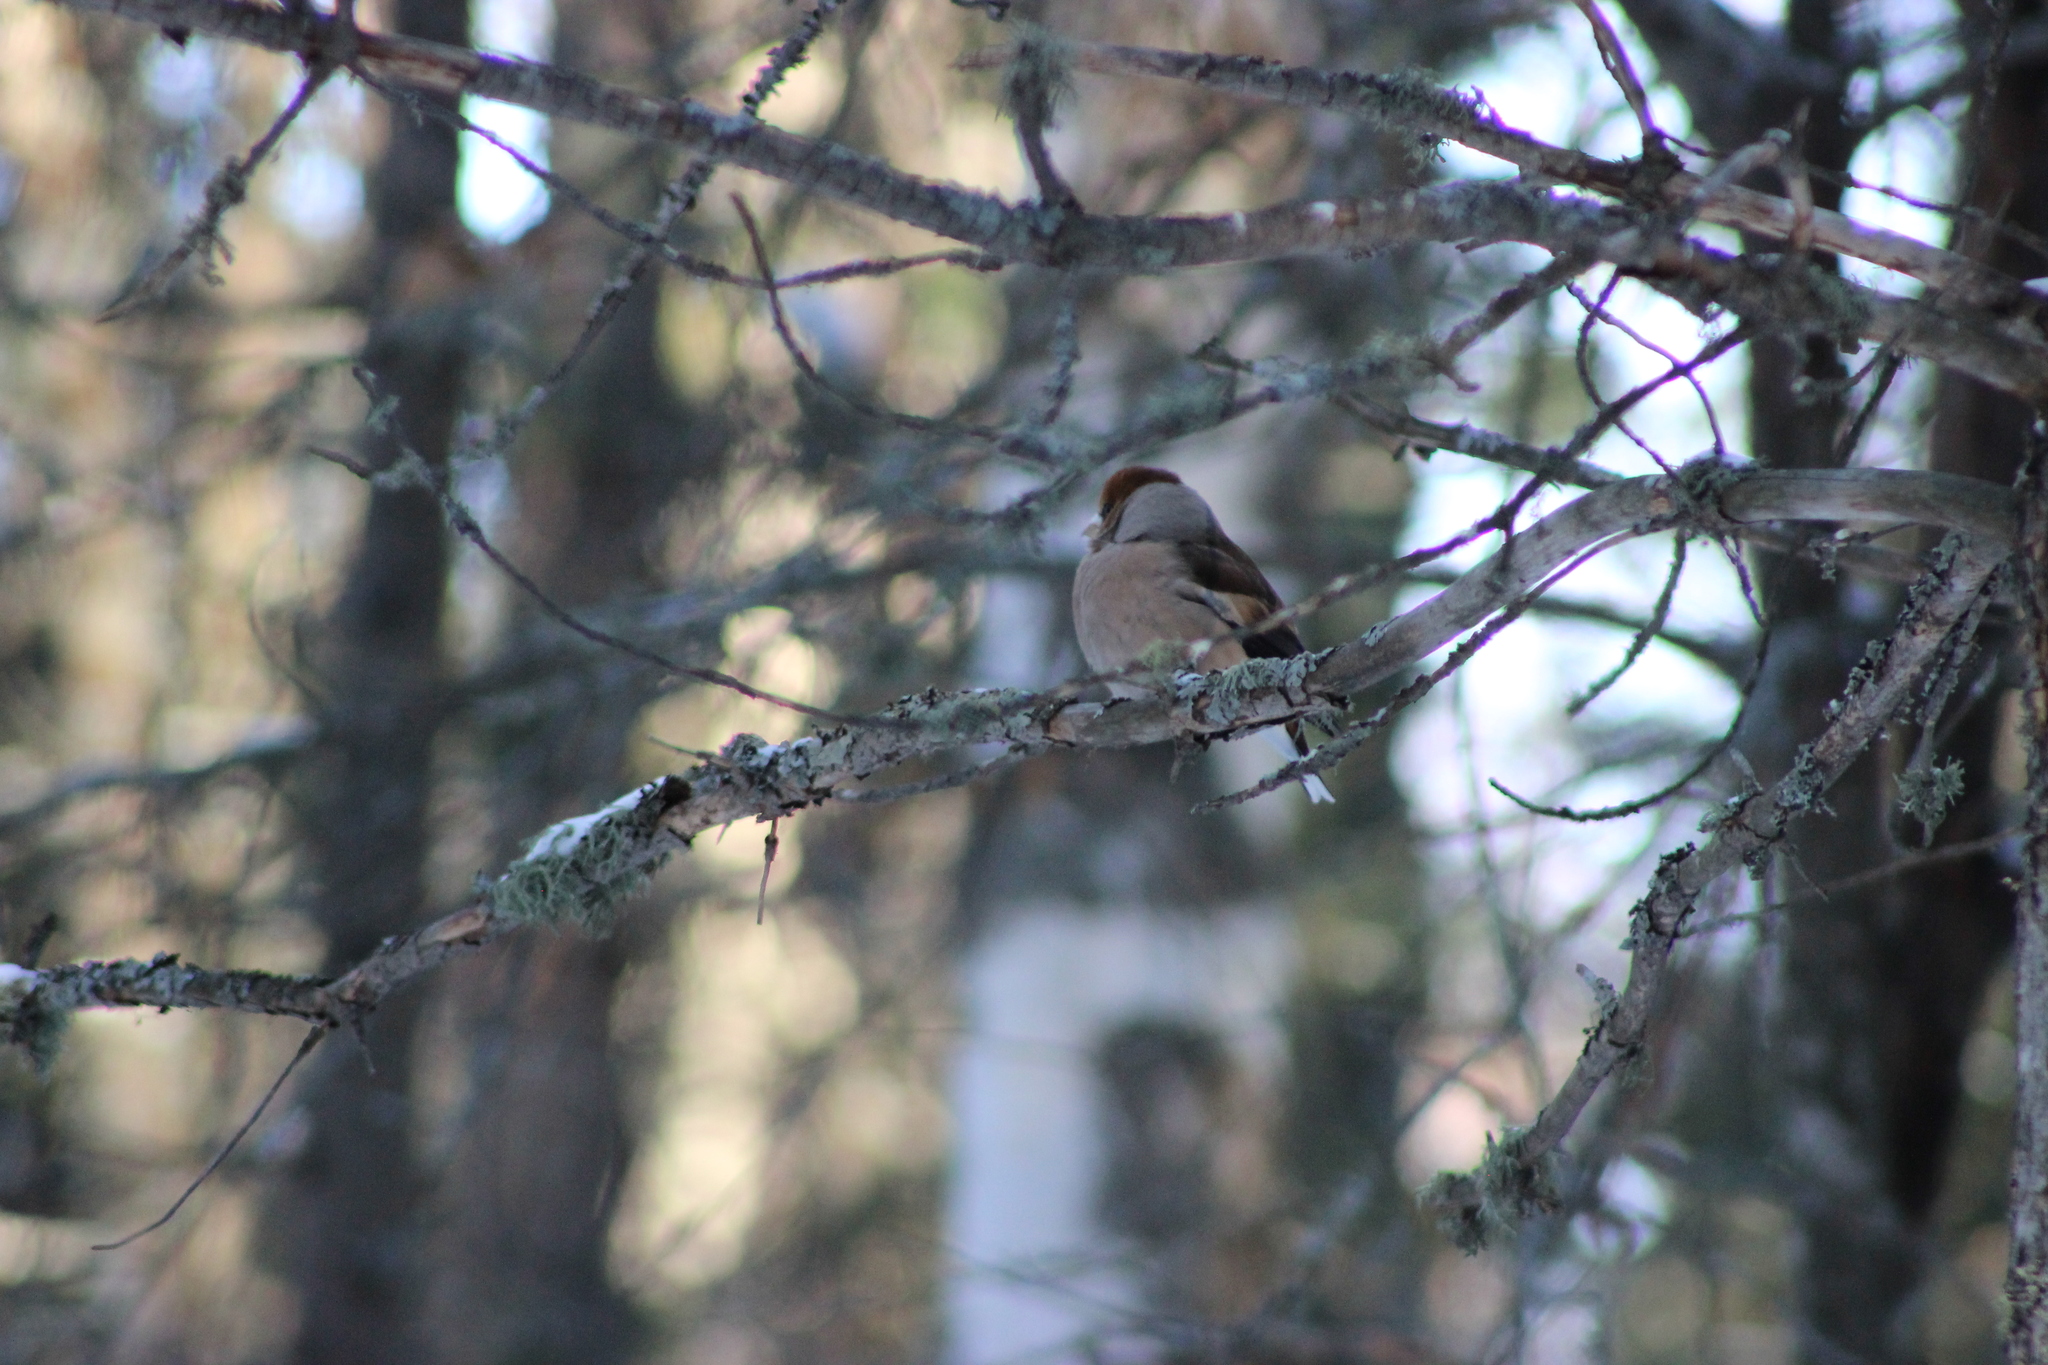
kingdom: Animalia
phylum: Chordata
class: Aves
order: Passeriformes
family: Fringillidae
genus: Coccothraustes
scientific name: Coccothraustes coccothraustes
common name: Hawfinch
